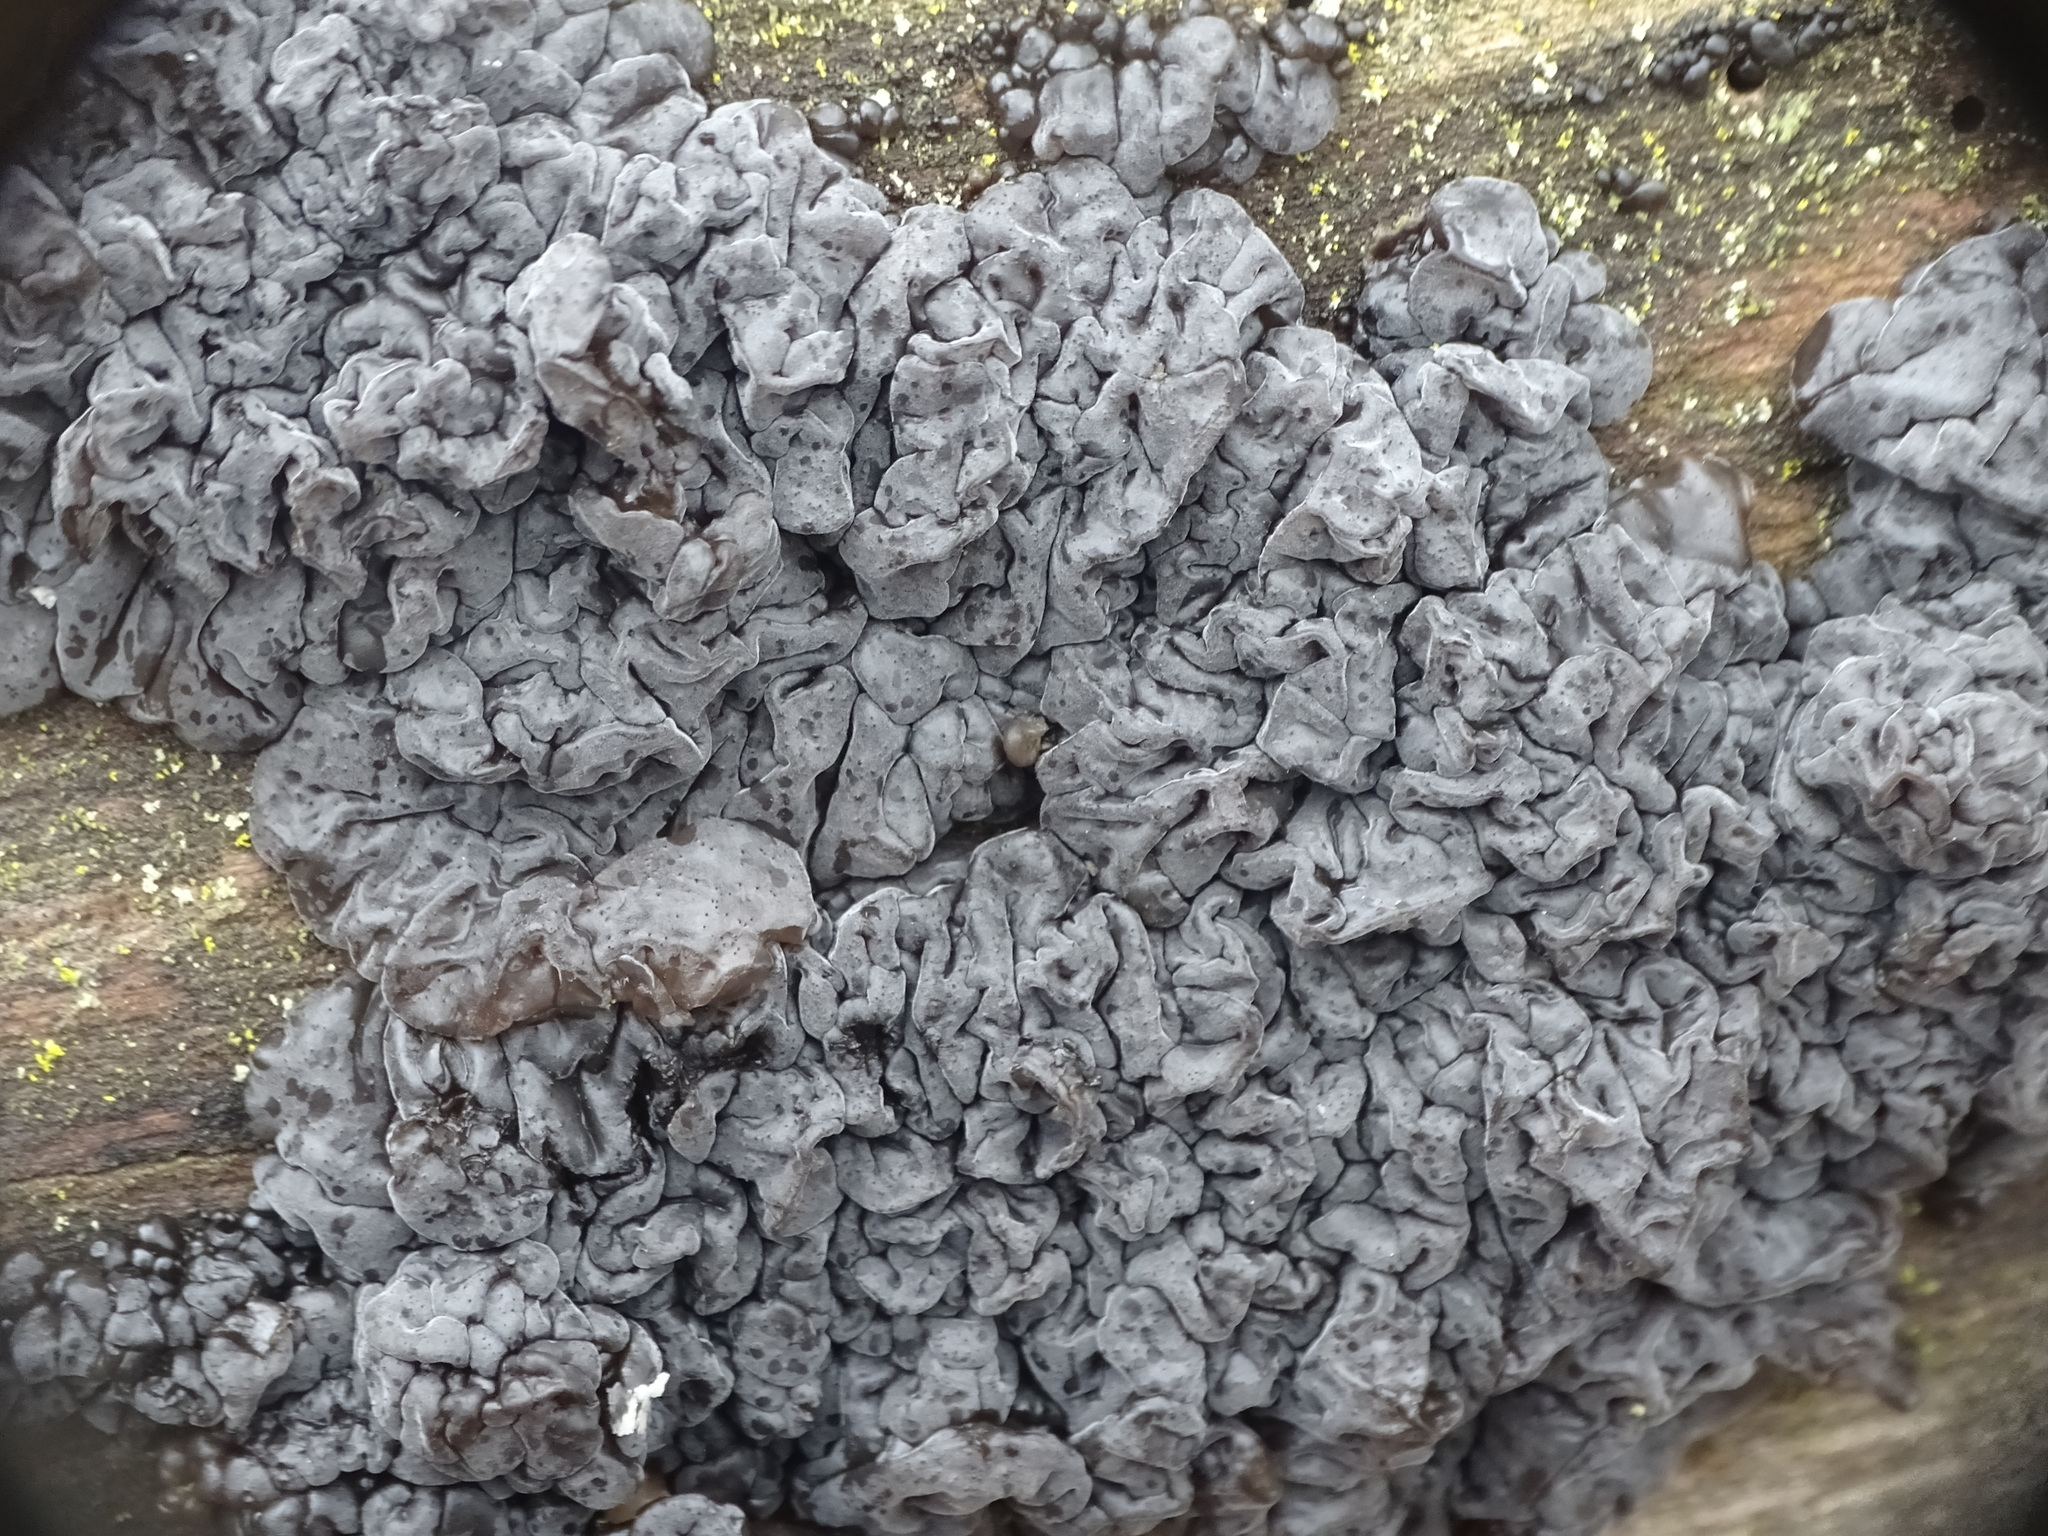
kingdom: Fungi
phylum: Basidiomycota
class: Agaricomycetes
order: Auriculariales
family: Auriculariaceae
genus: Exidia
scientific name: Exidia glandulosa
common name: Witches' butter
